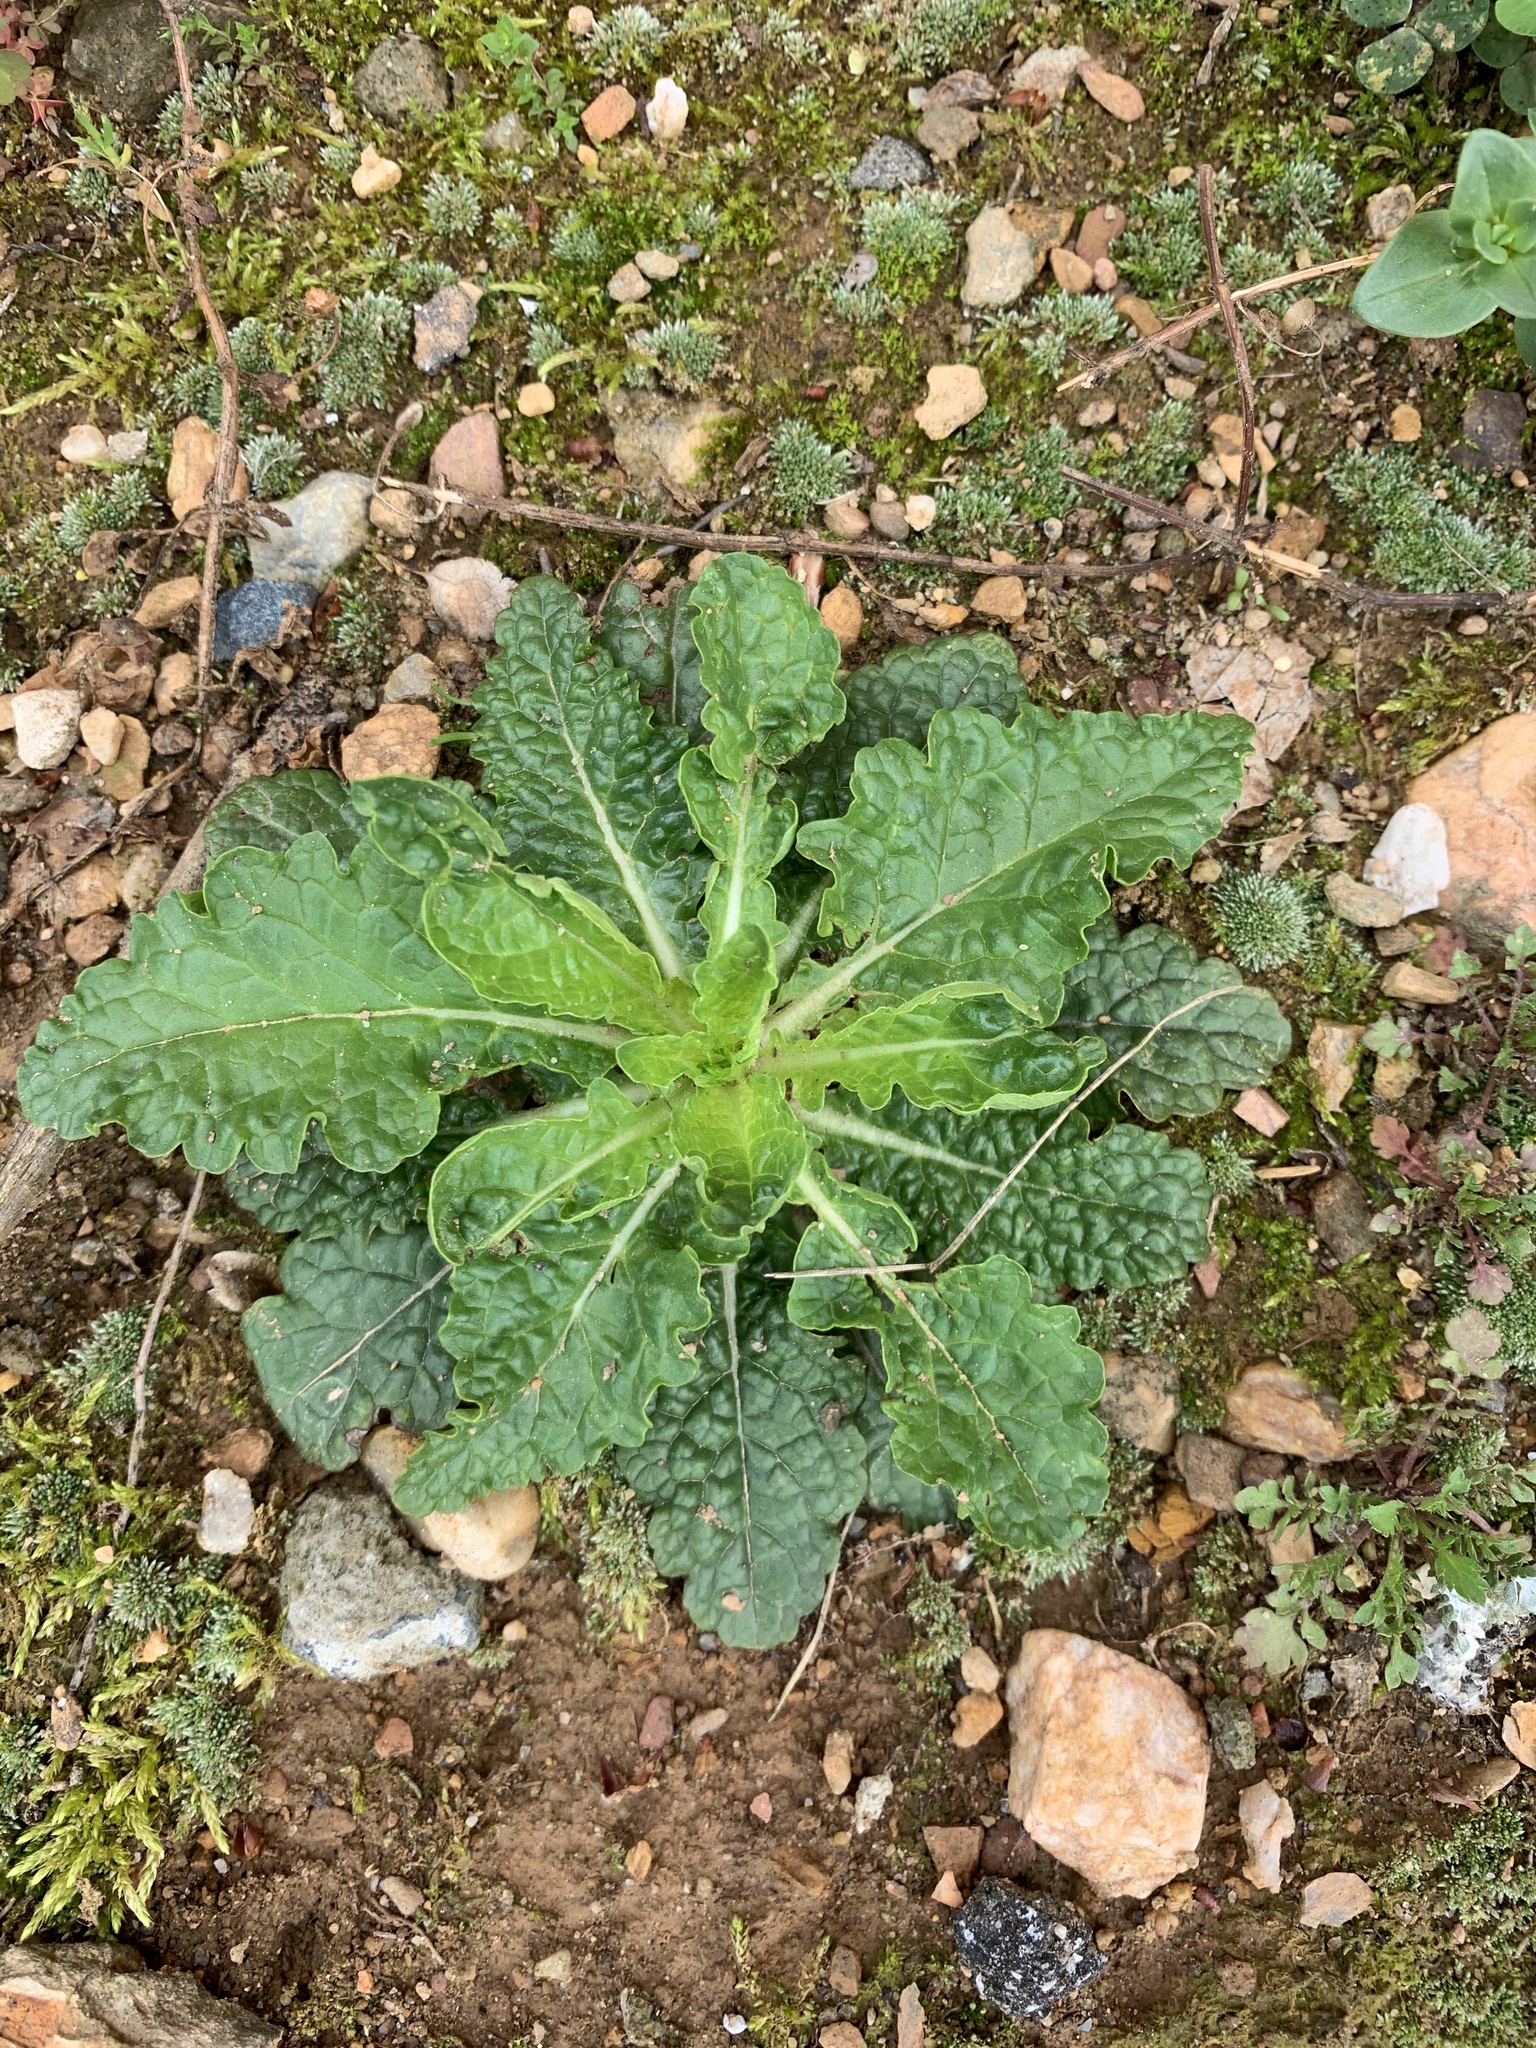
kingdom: Plantae
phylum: Tracheophyta
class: Magnoliopsida
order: Lamiales
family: Scrophulariaceae
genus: Verbascum
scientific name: Verbascum blattaria
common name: Moth mullein
